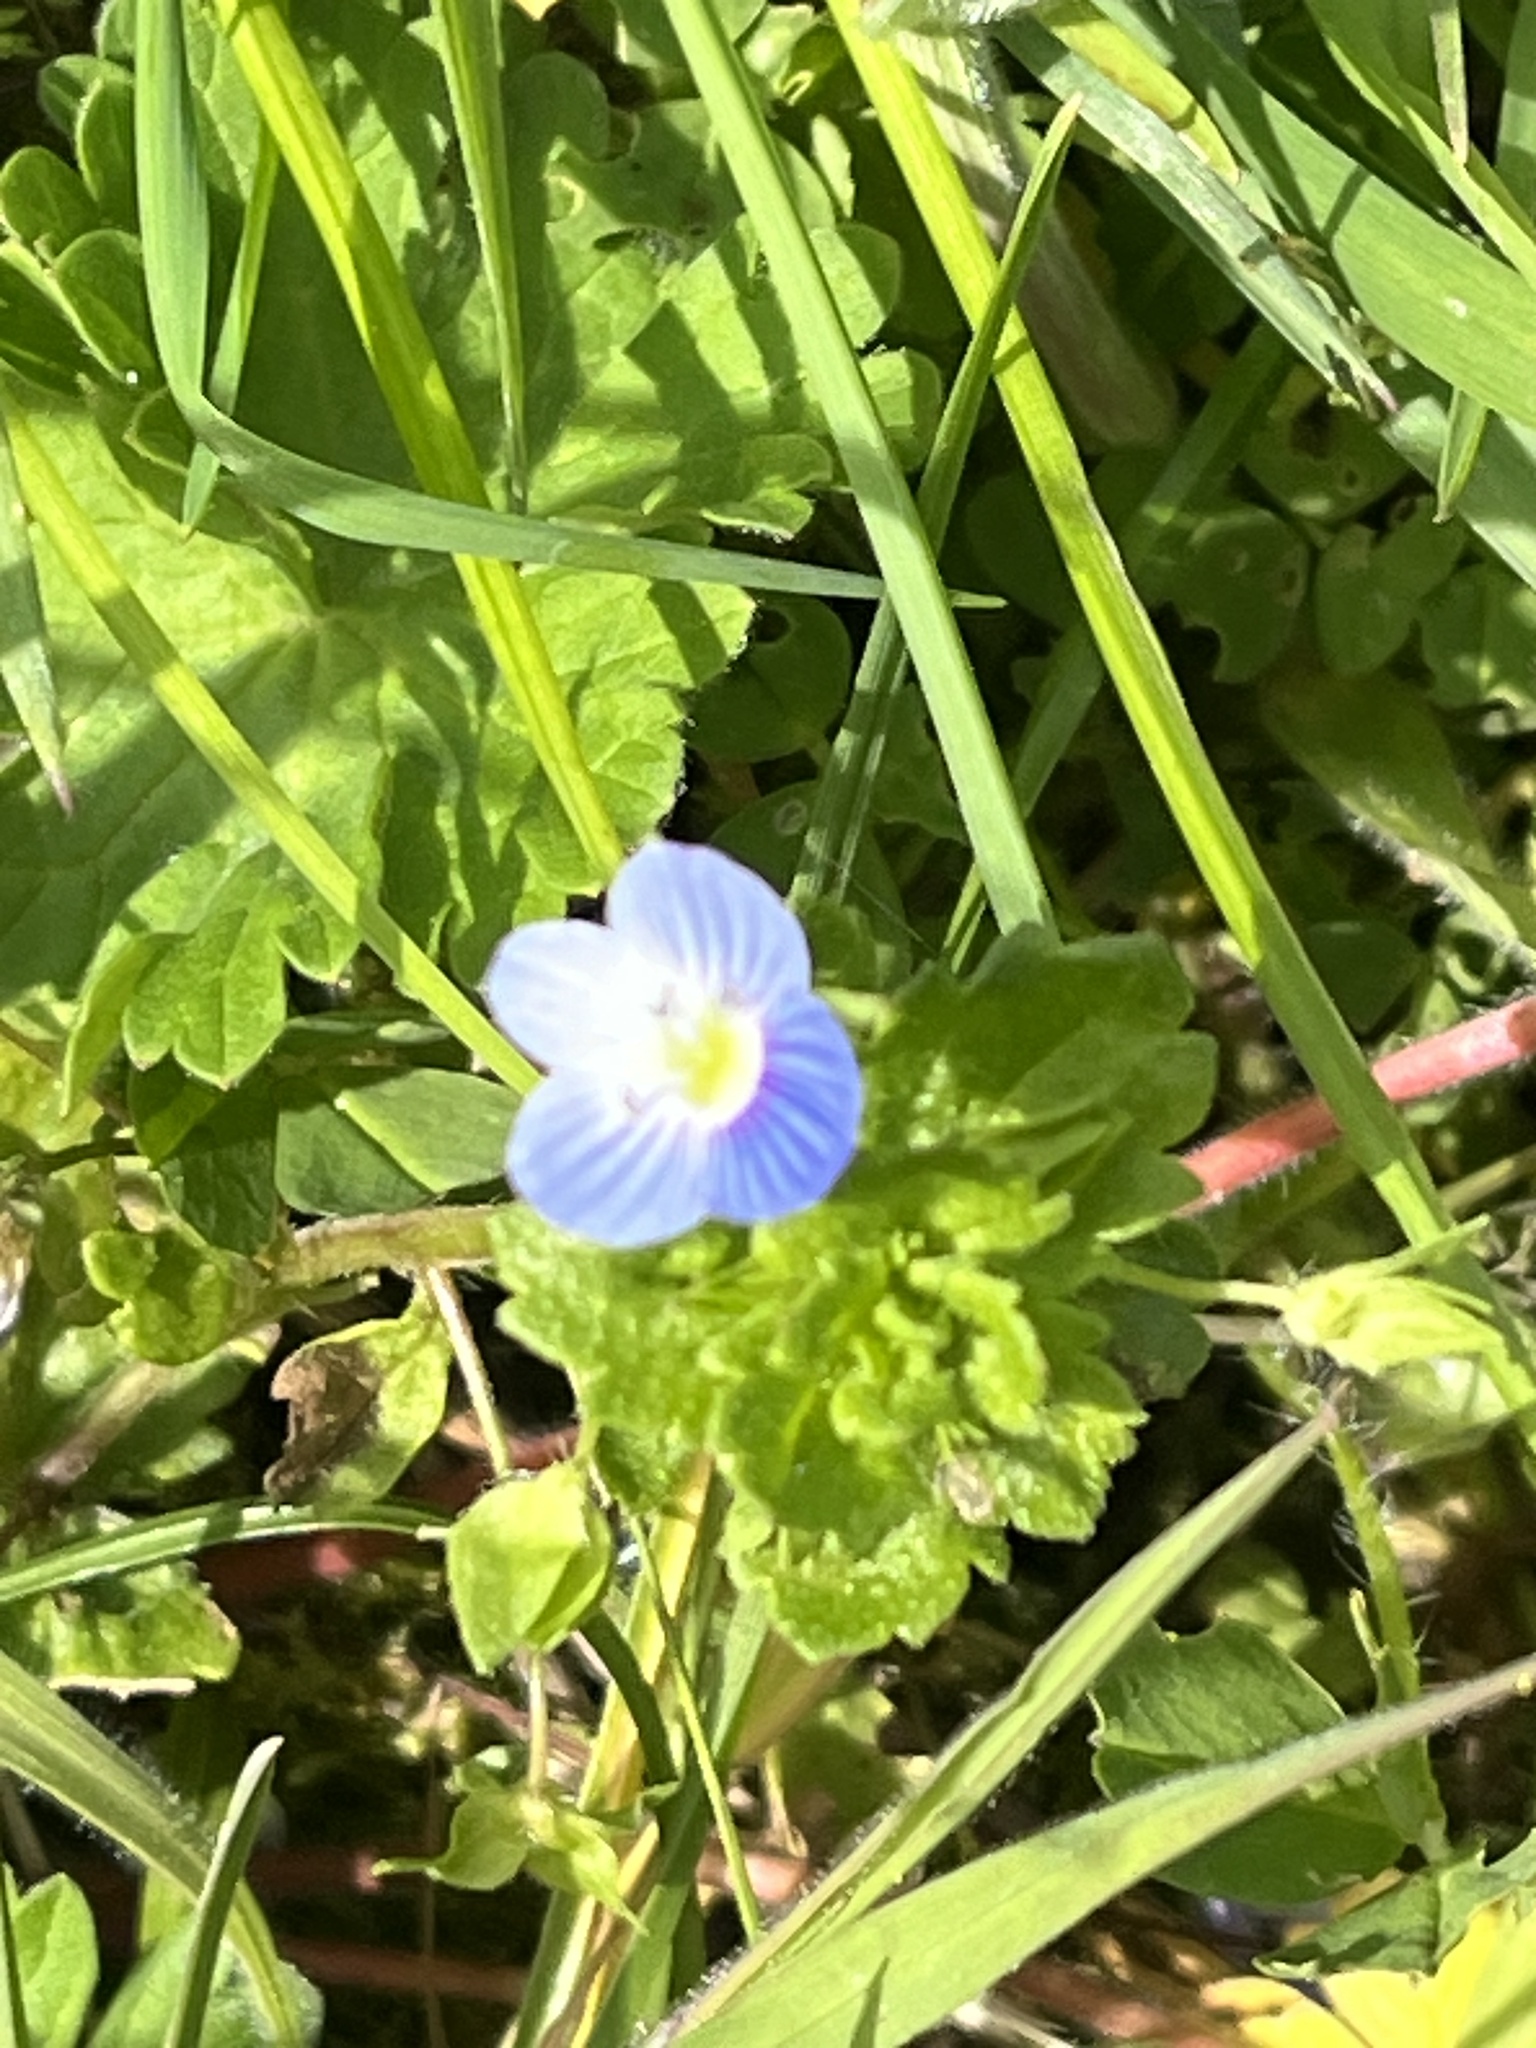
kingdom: Plantae
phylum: Tracheophyta
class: Magnoliopsida
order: Lamiales
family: Plantaginaceae
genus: Veronica
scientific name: Veronica persica
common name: Common field-speedwell
